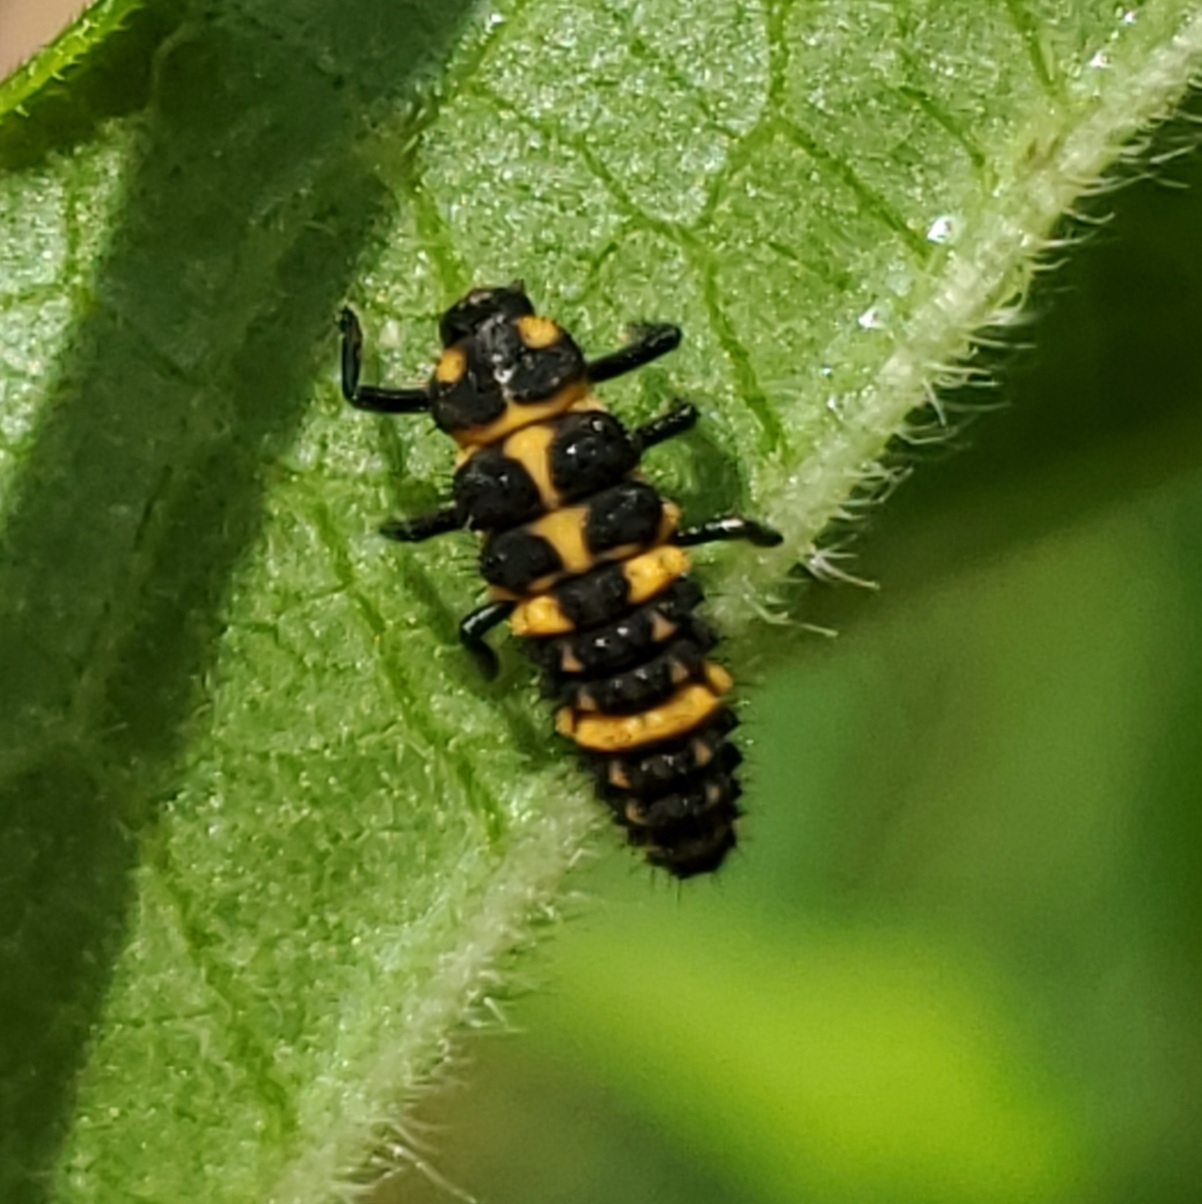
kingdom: Animalia
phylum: Arthropoda
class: Insecta
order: Coleoptera
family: Coccinellidae
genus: Coleomegilla
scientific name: Coleomegilla maculata
